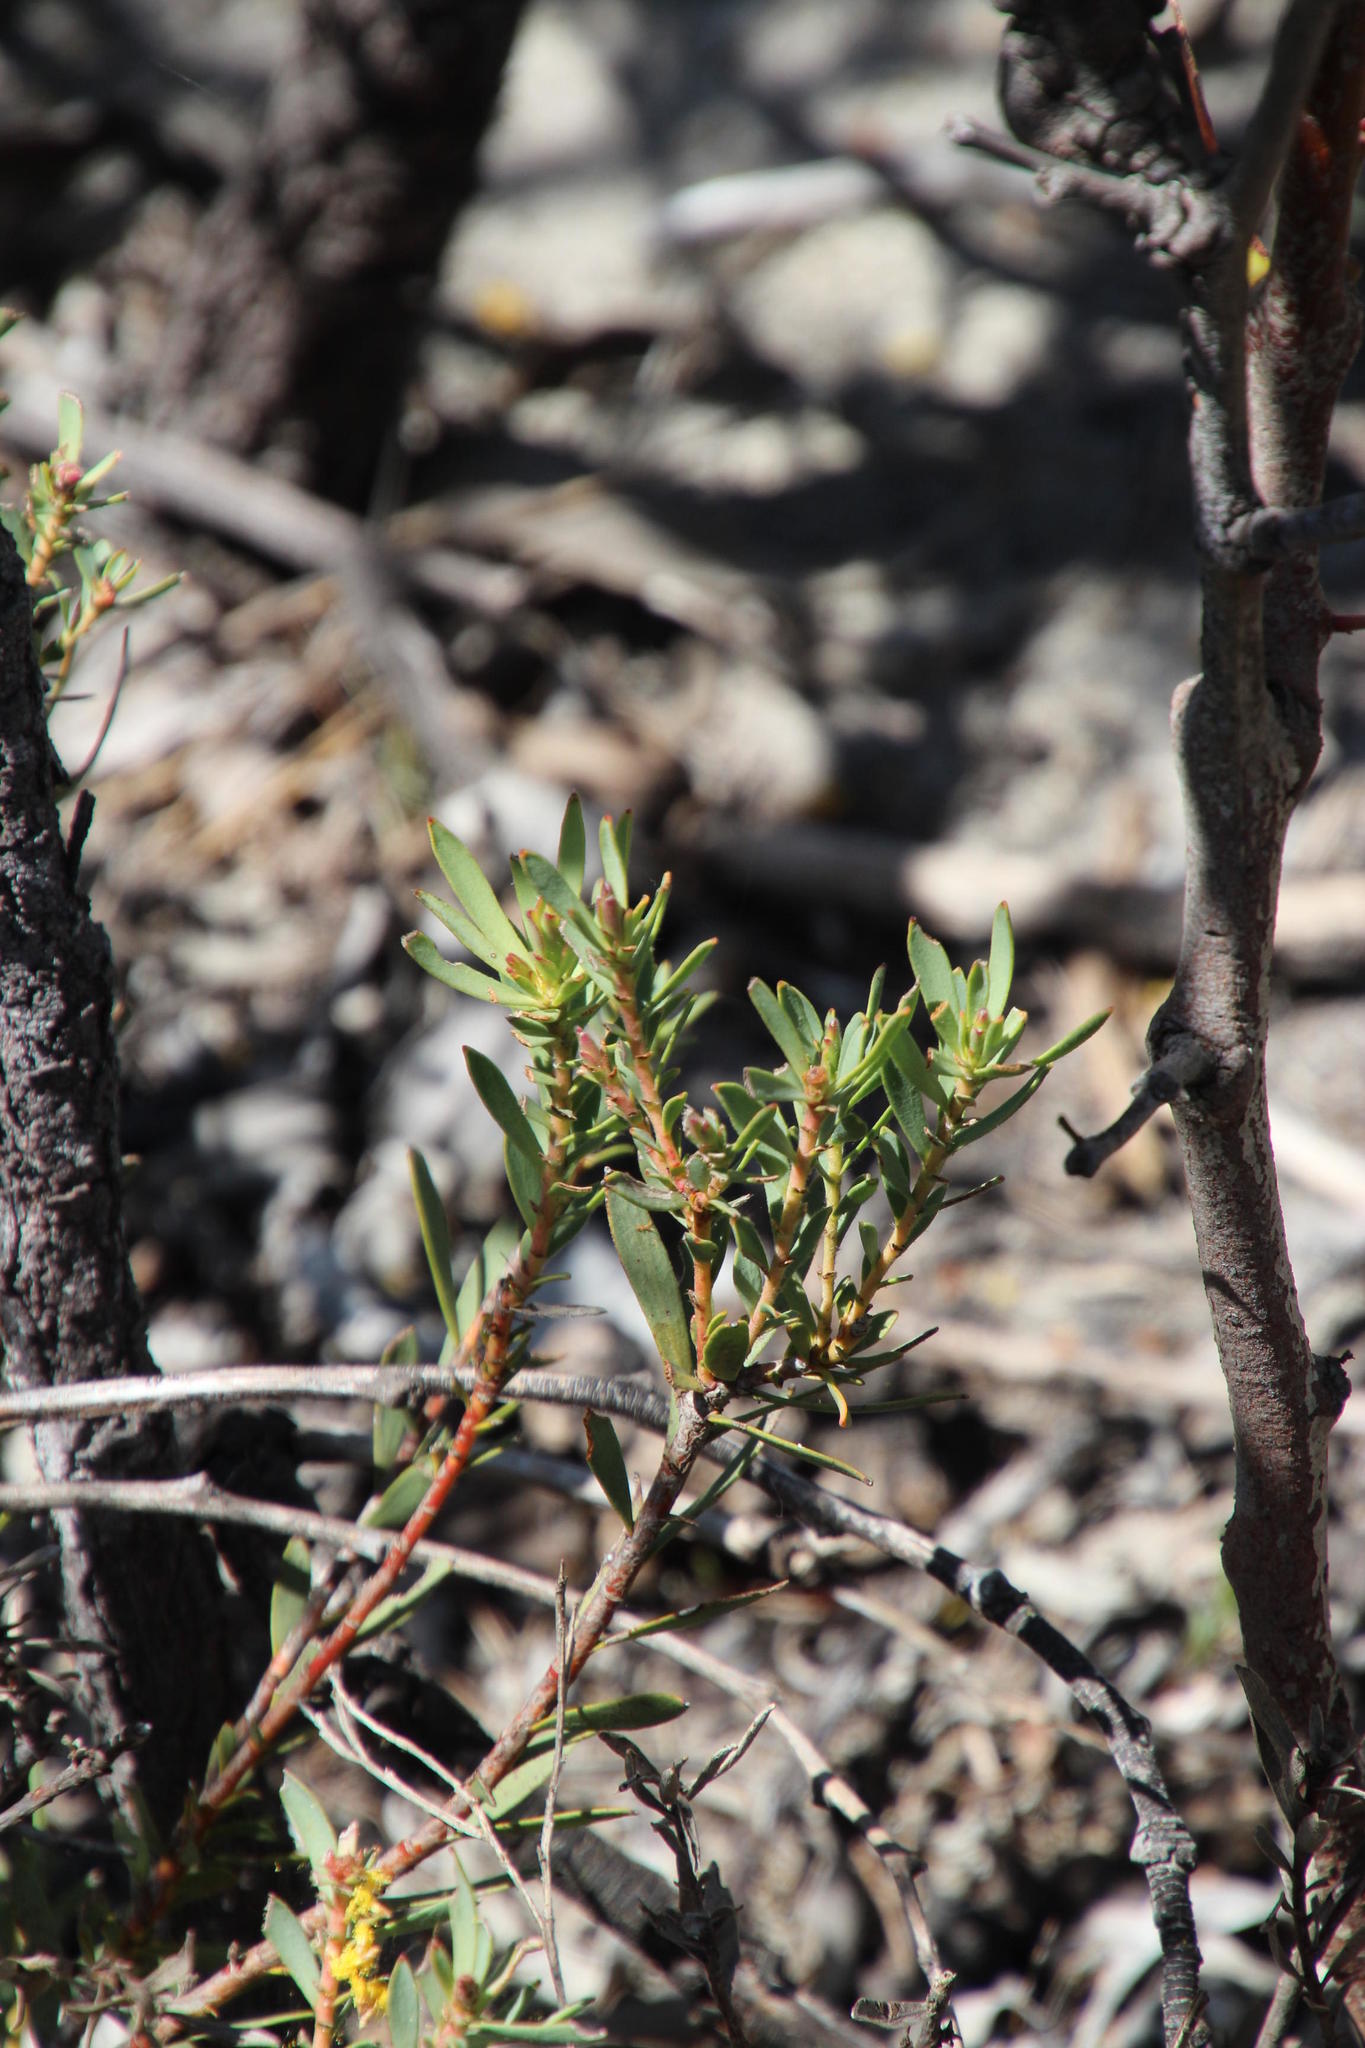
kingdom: Plantae
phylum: Tracheophyta
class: Magnoliopsida
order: Proteales
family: Proteaceae
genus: Leucadendron
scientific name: Leucadendron lanigerum
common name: Shale conebush
